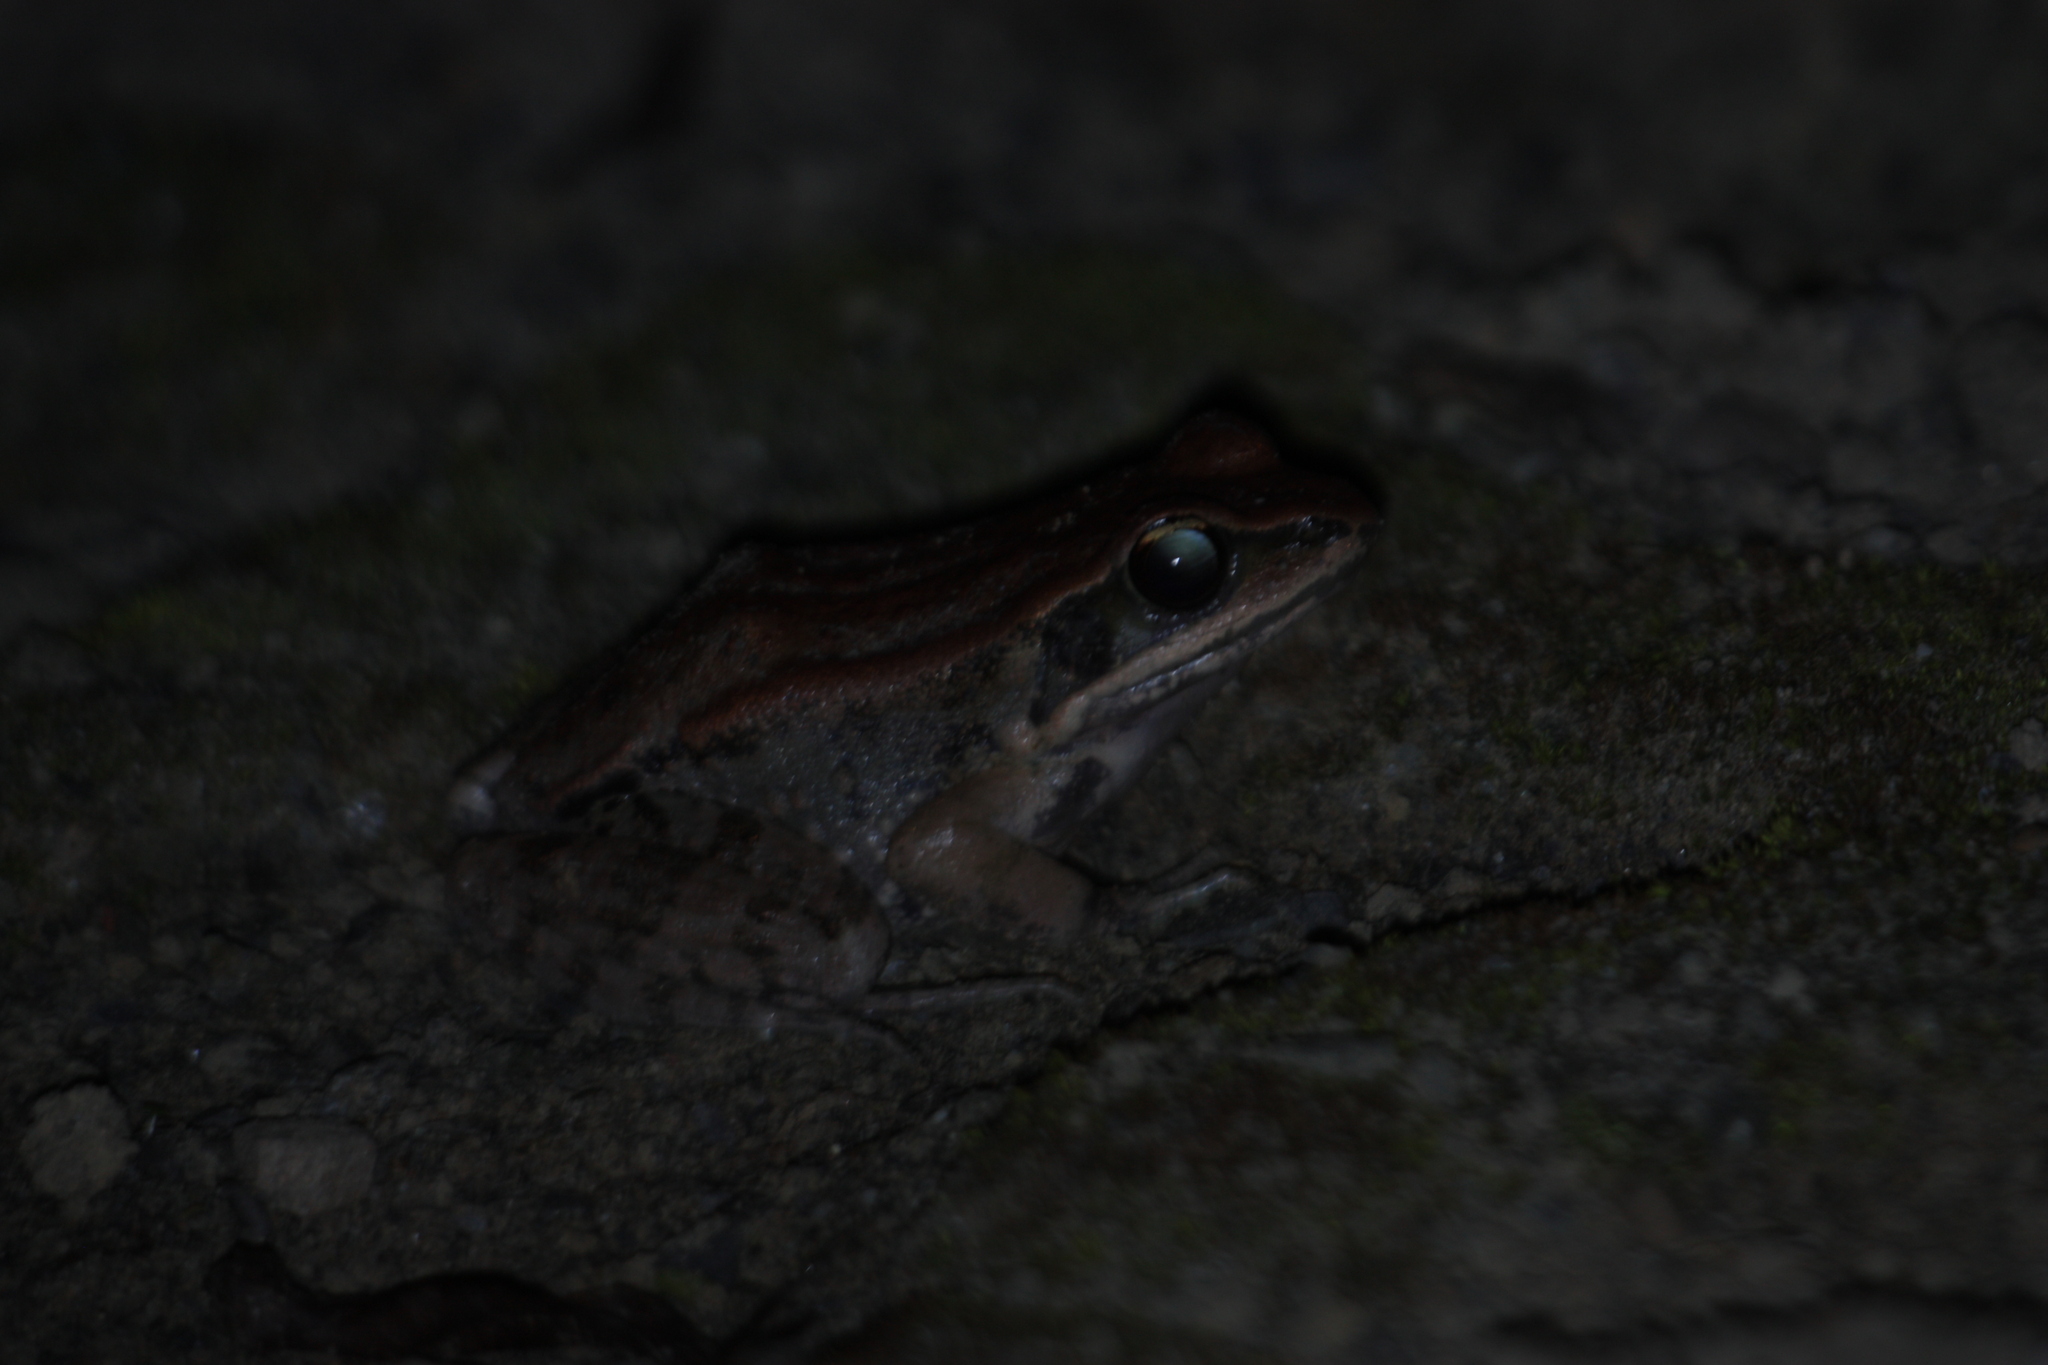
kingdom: Animalia
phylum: Chordata
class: Amphibia
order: Anura
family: Ranidae
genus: Hylarana
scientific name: Hylarana latouchii
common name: Broad-folded frog
